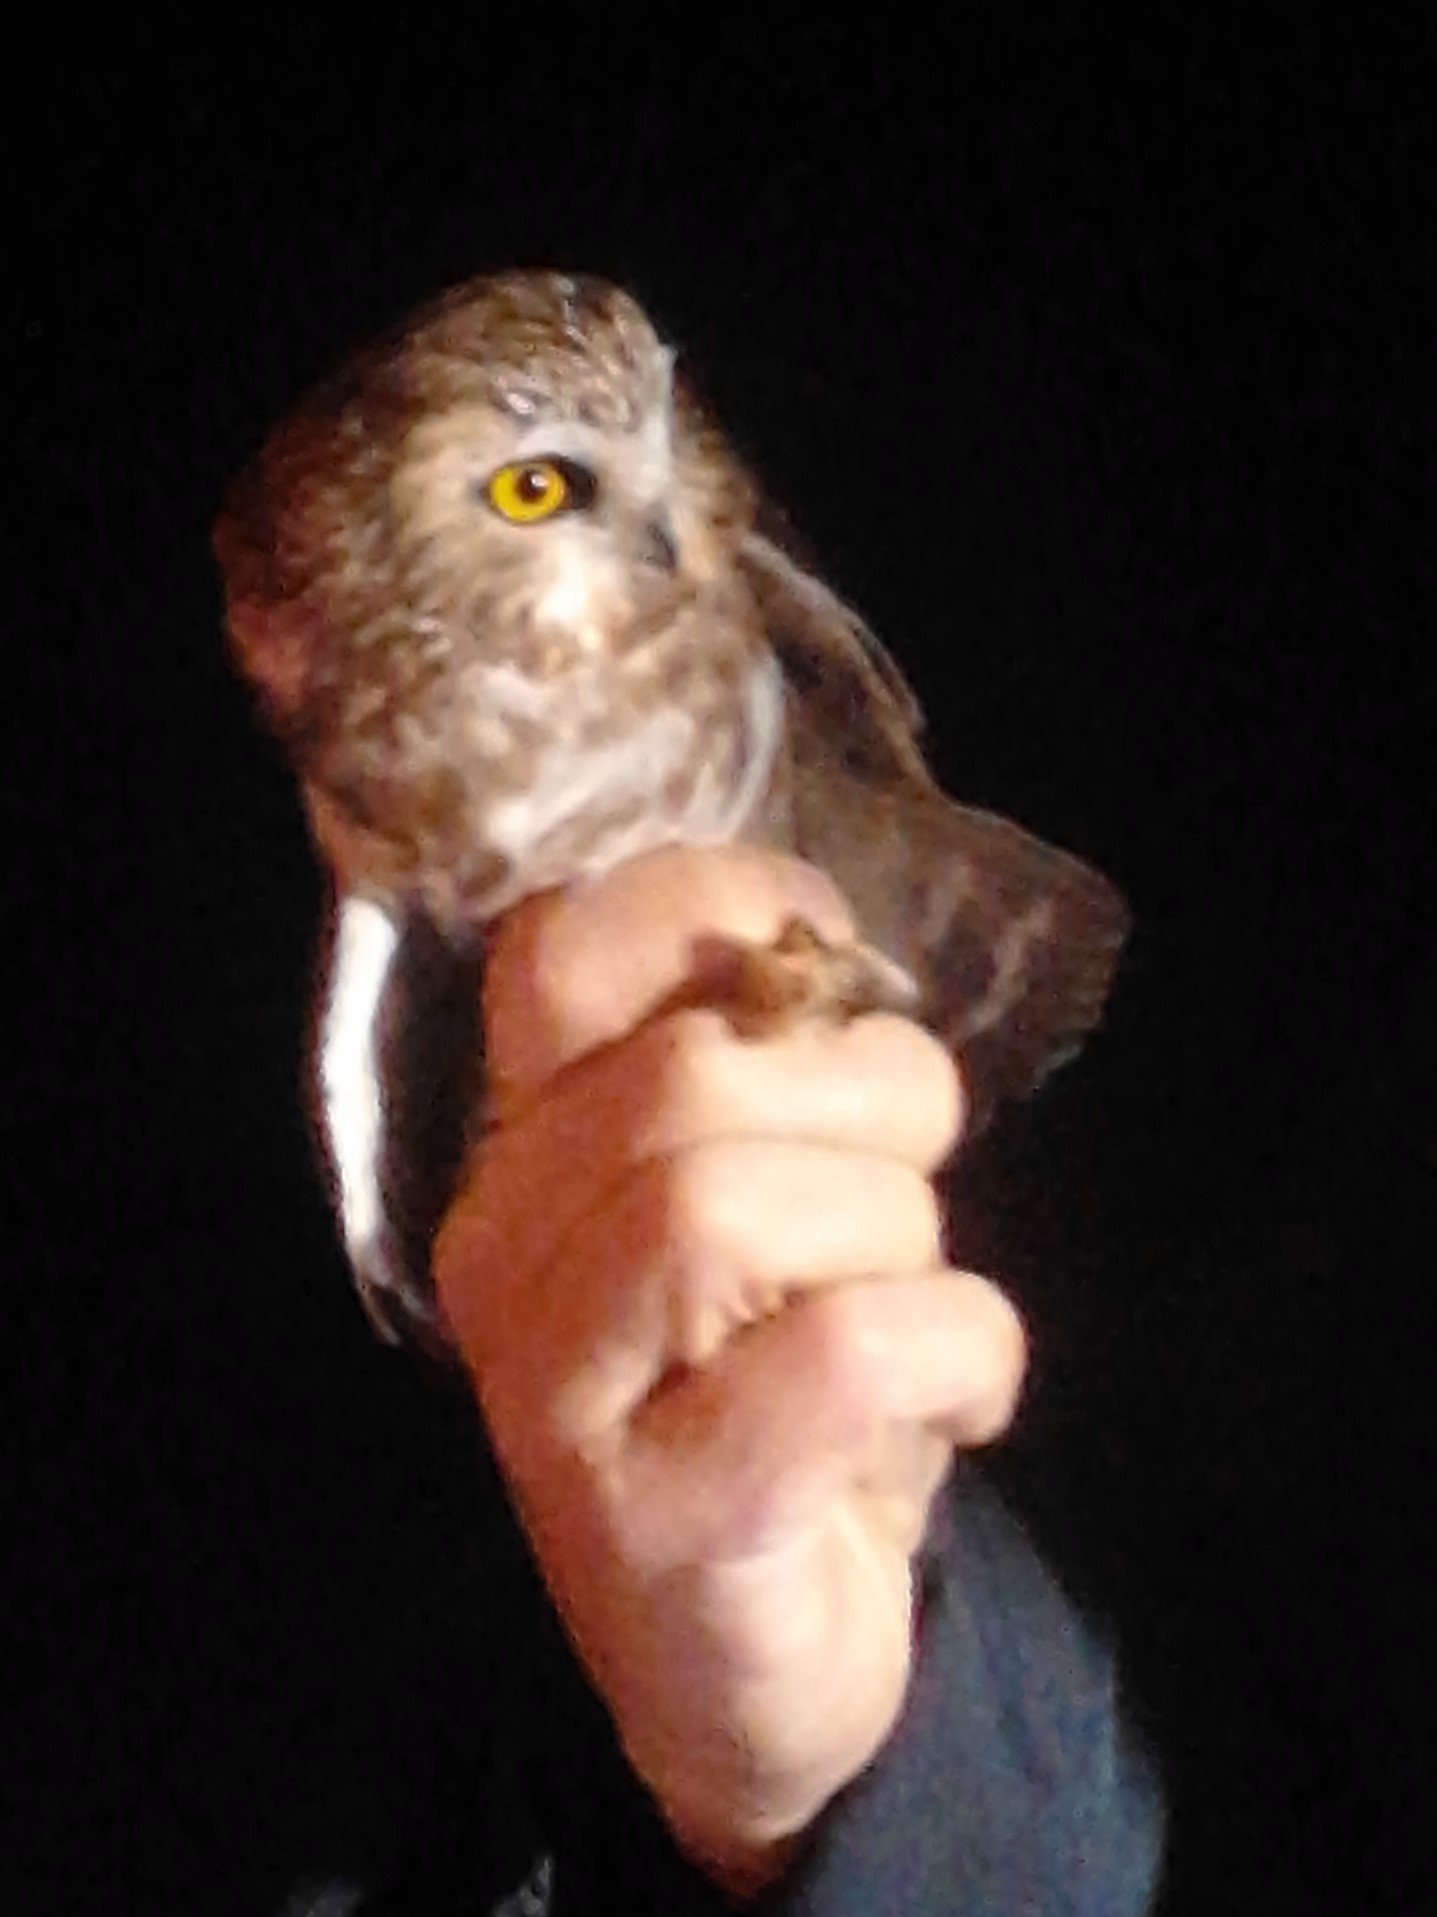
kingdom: Animalia
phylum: Chordata
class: Aves
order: Strigiformes
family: Strigidae
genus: Aegolius
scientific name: Aegolius acadicus
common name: Northern saw-whet owl
